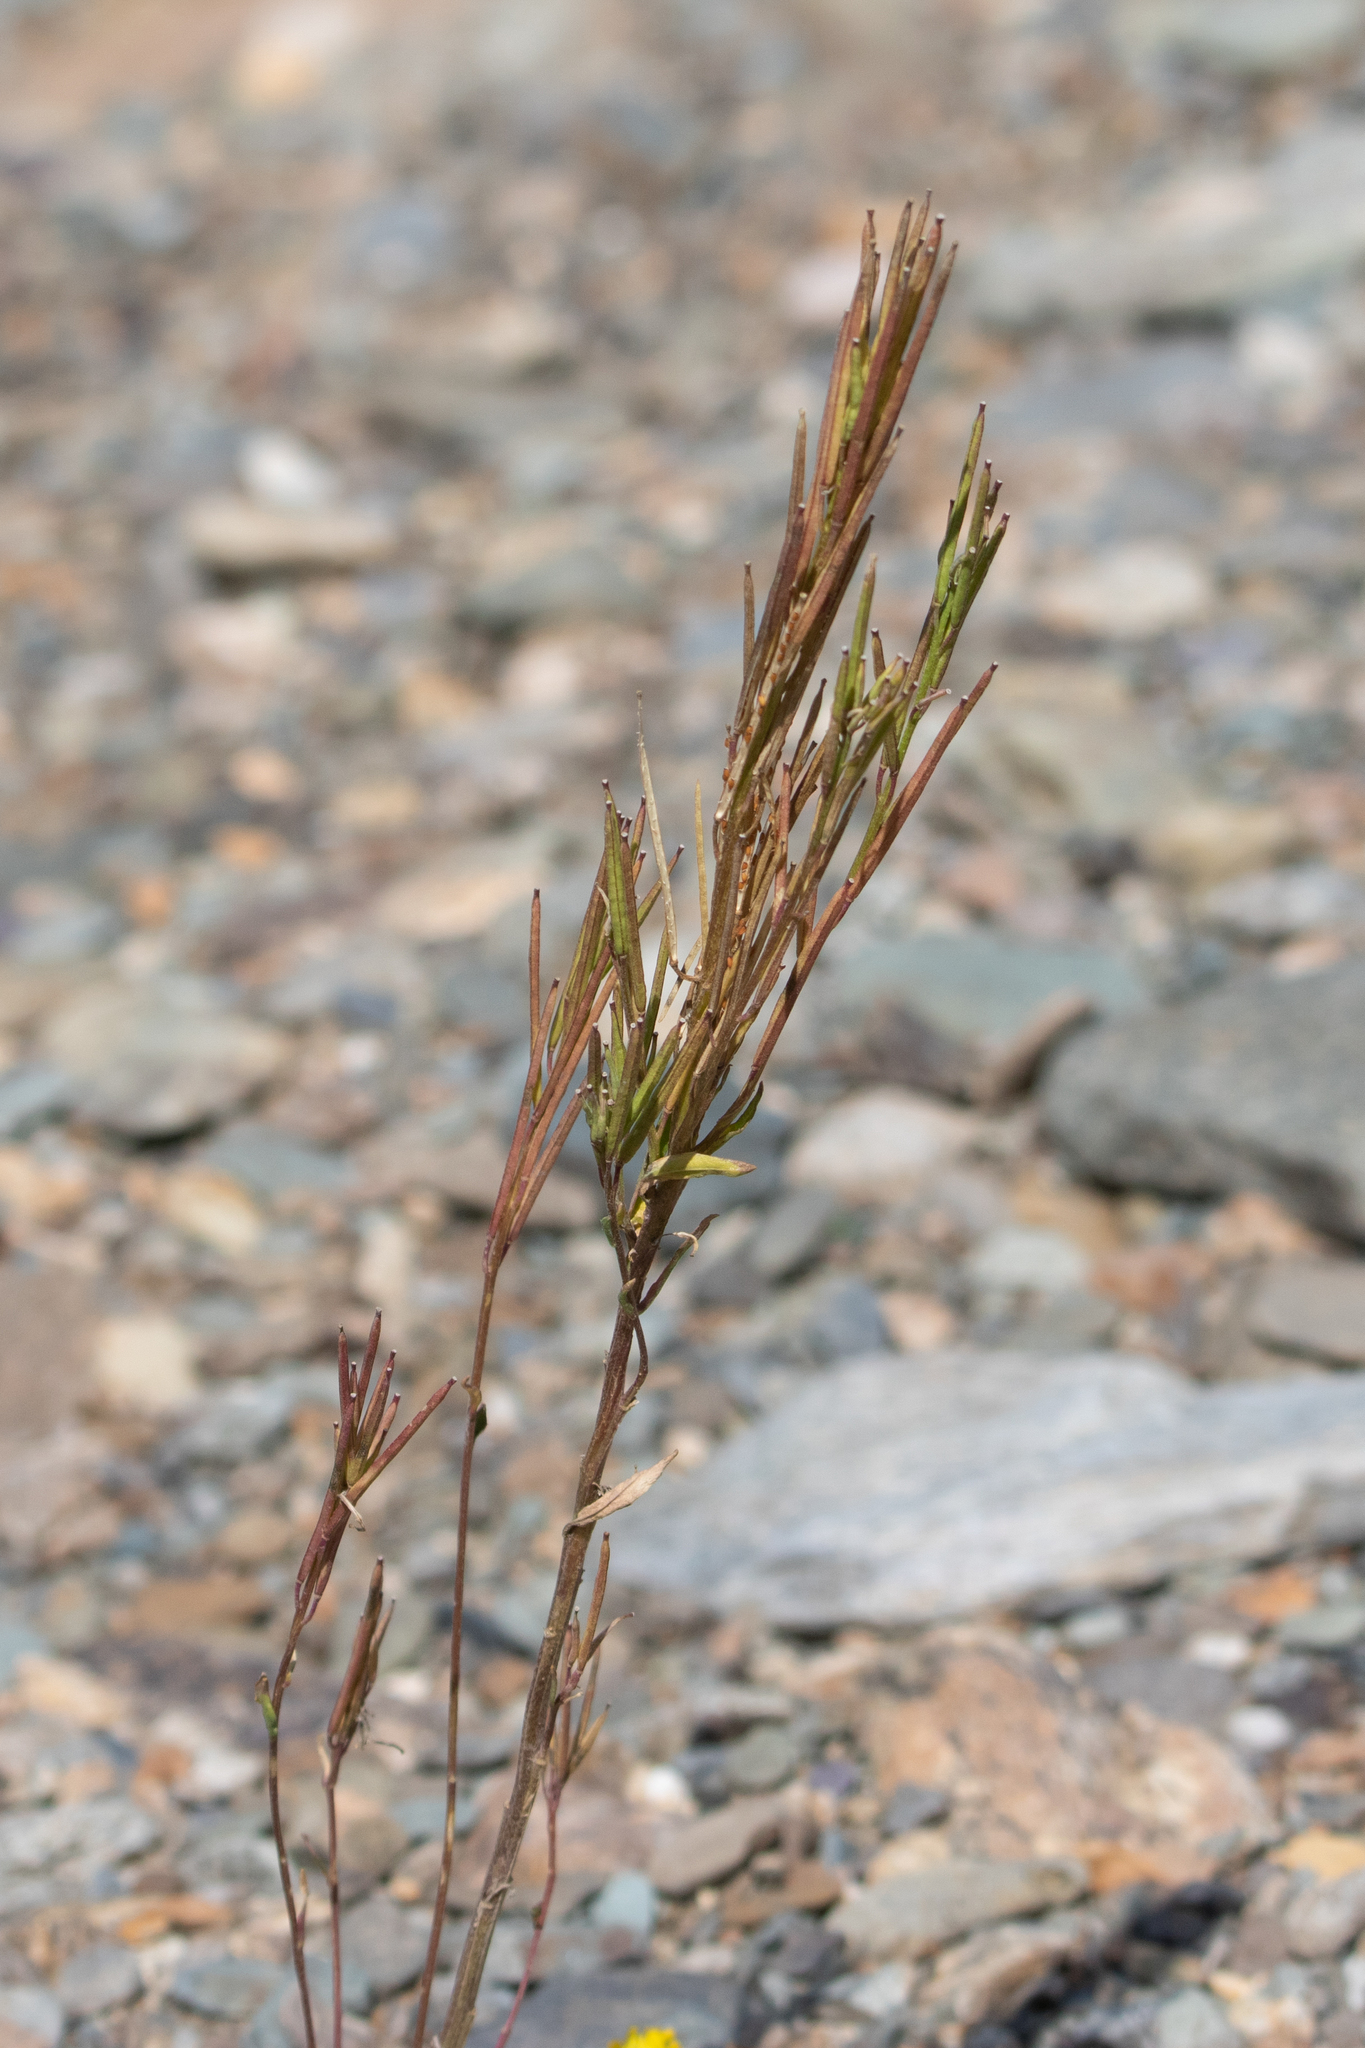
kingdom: Plantae
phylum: Tracheophyta
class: Magnoliopsida
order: Brassicales
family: Brassicaceae
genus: Erysimum
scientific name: Erysimum hieraciifolium
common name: European wallflower
